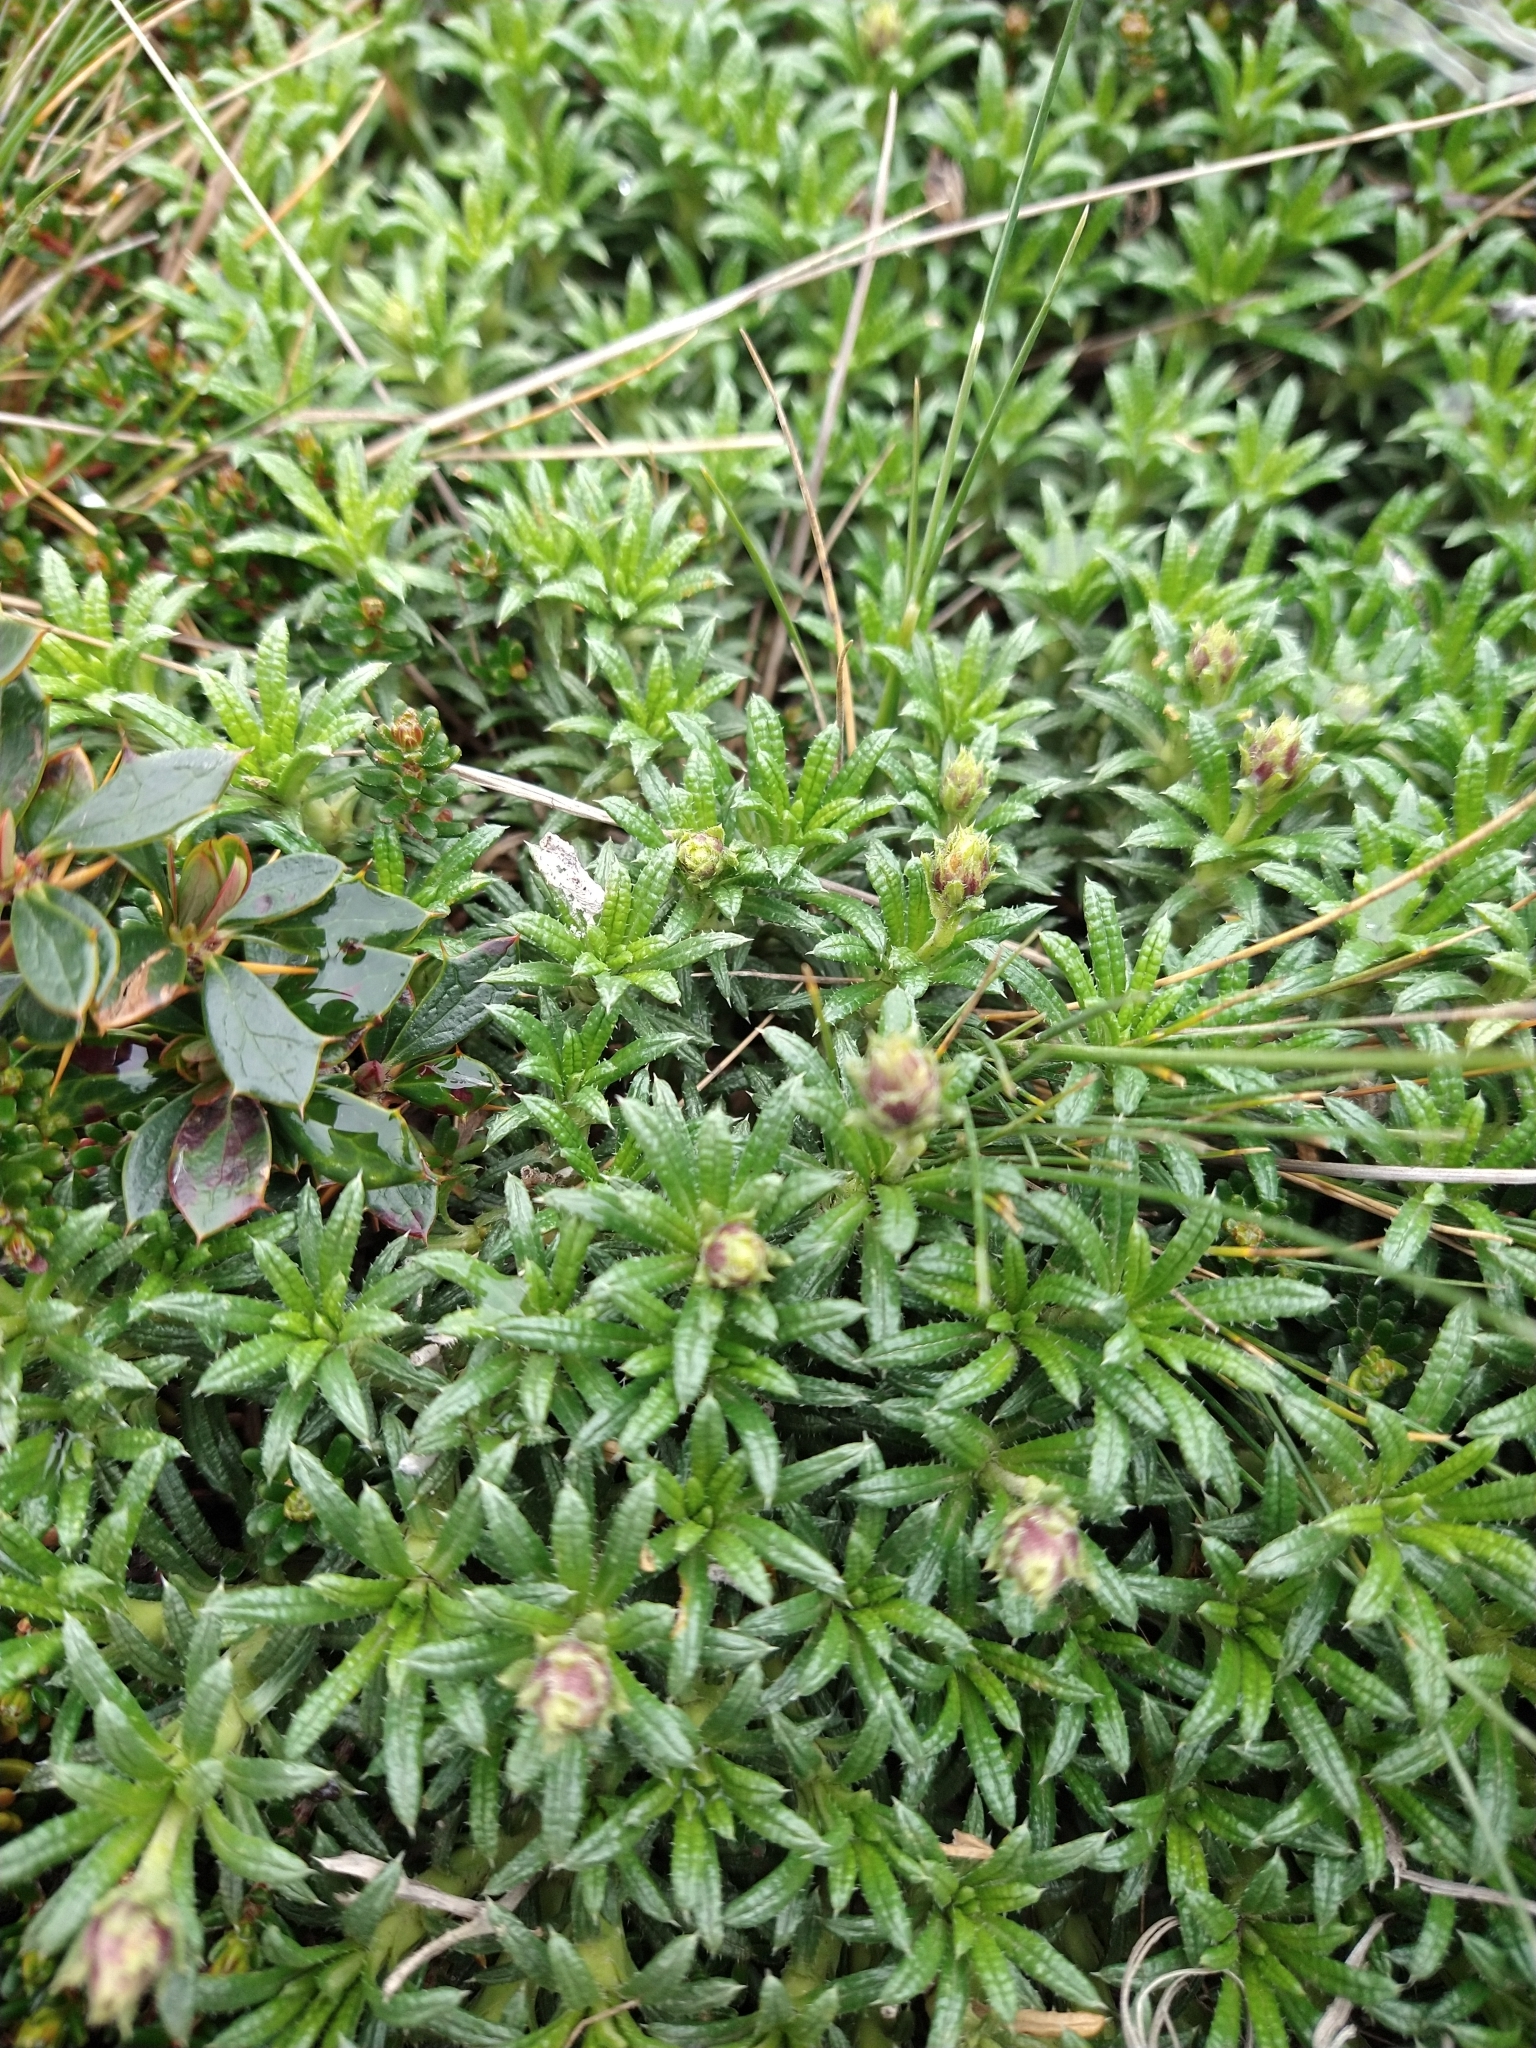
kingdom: Plantae
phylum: Tracheophyta
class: Magnoliopsida
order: Asterales
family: Asteraceae
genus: Perezia
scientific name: Perezia recurvata
